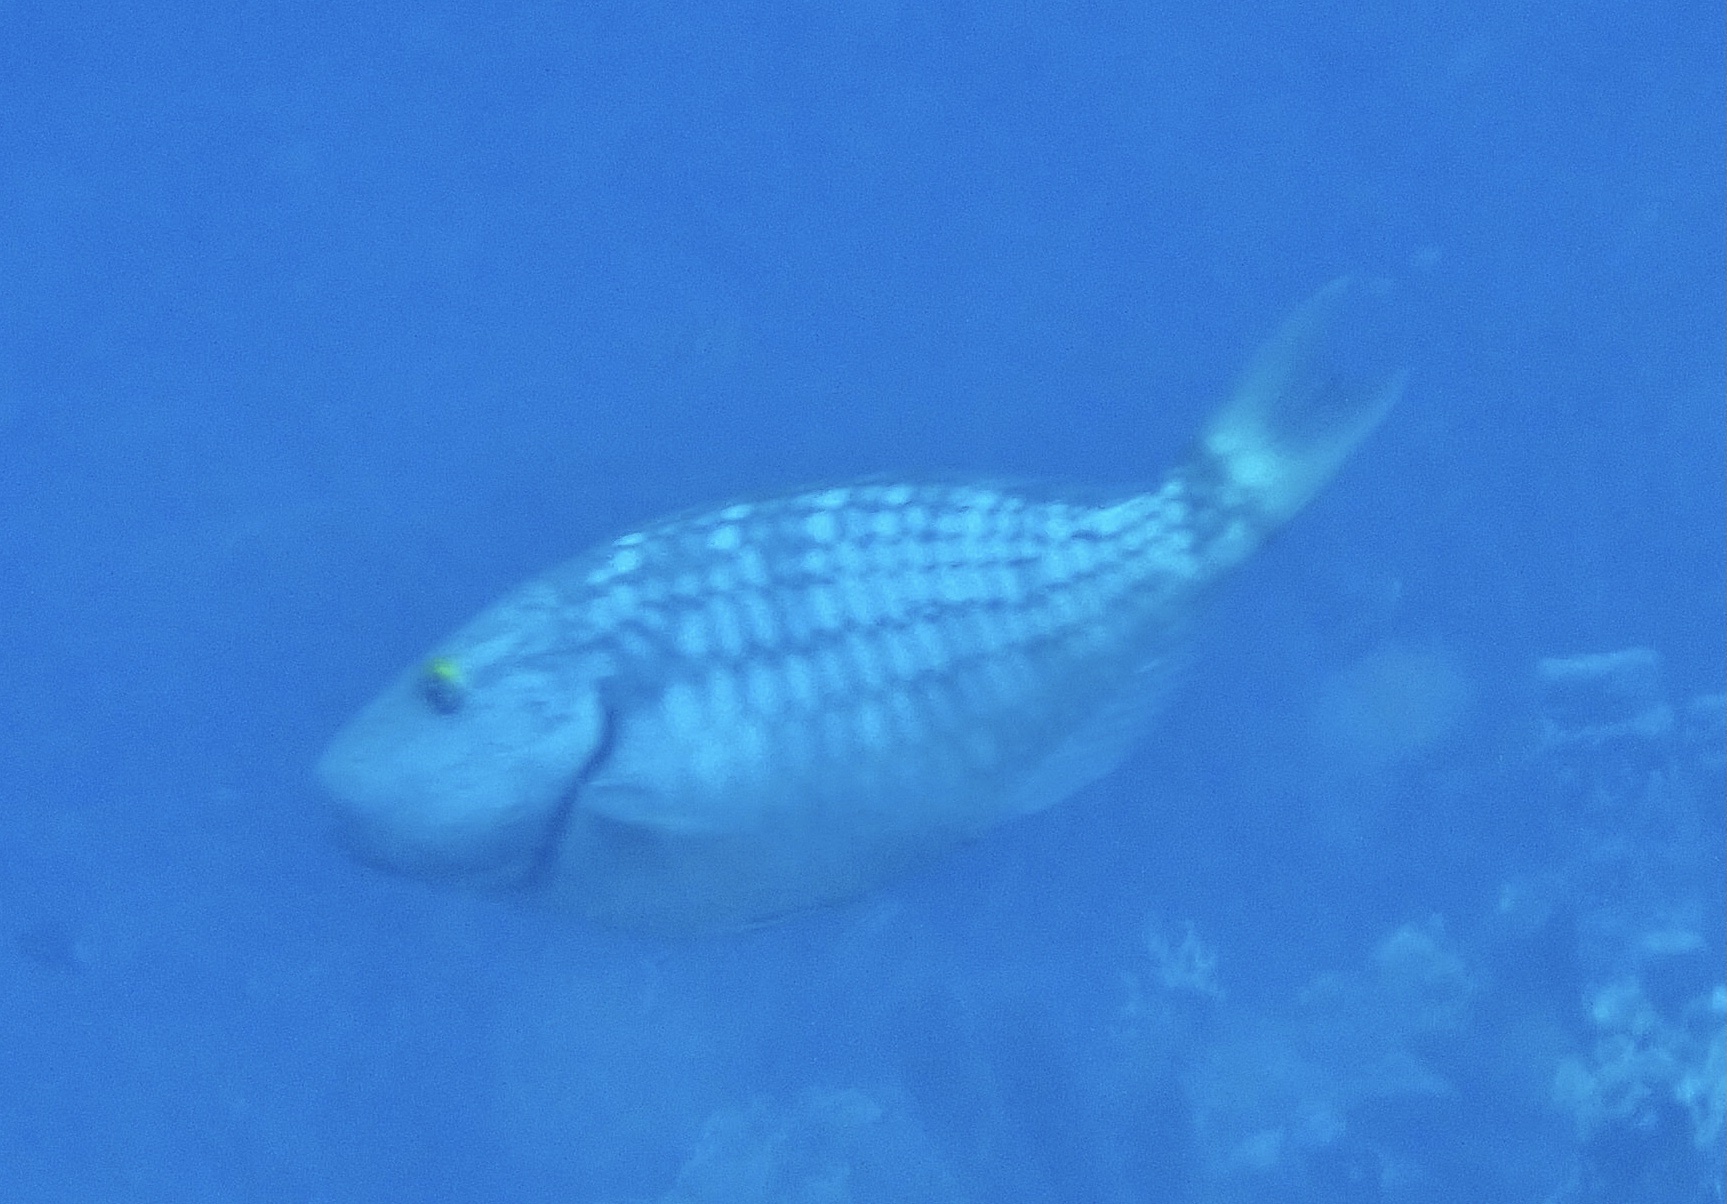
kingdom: Animalia
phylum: Chordata
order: Perciformes
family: Scaridae
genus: Sparisoma
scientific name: Sparisoma viride
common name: Stoplight parrotfish
